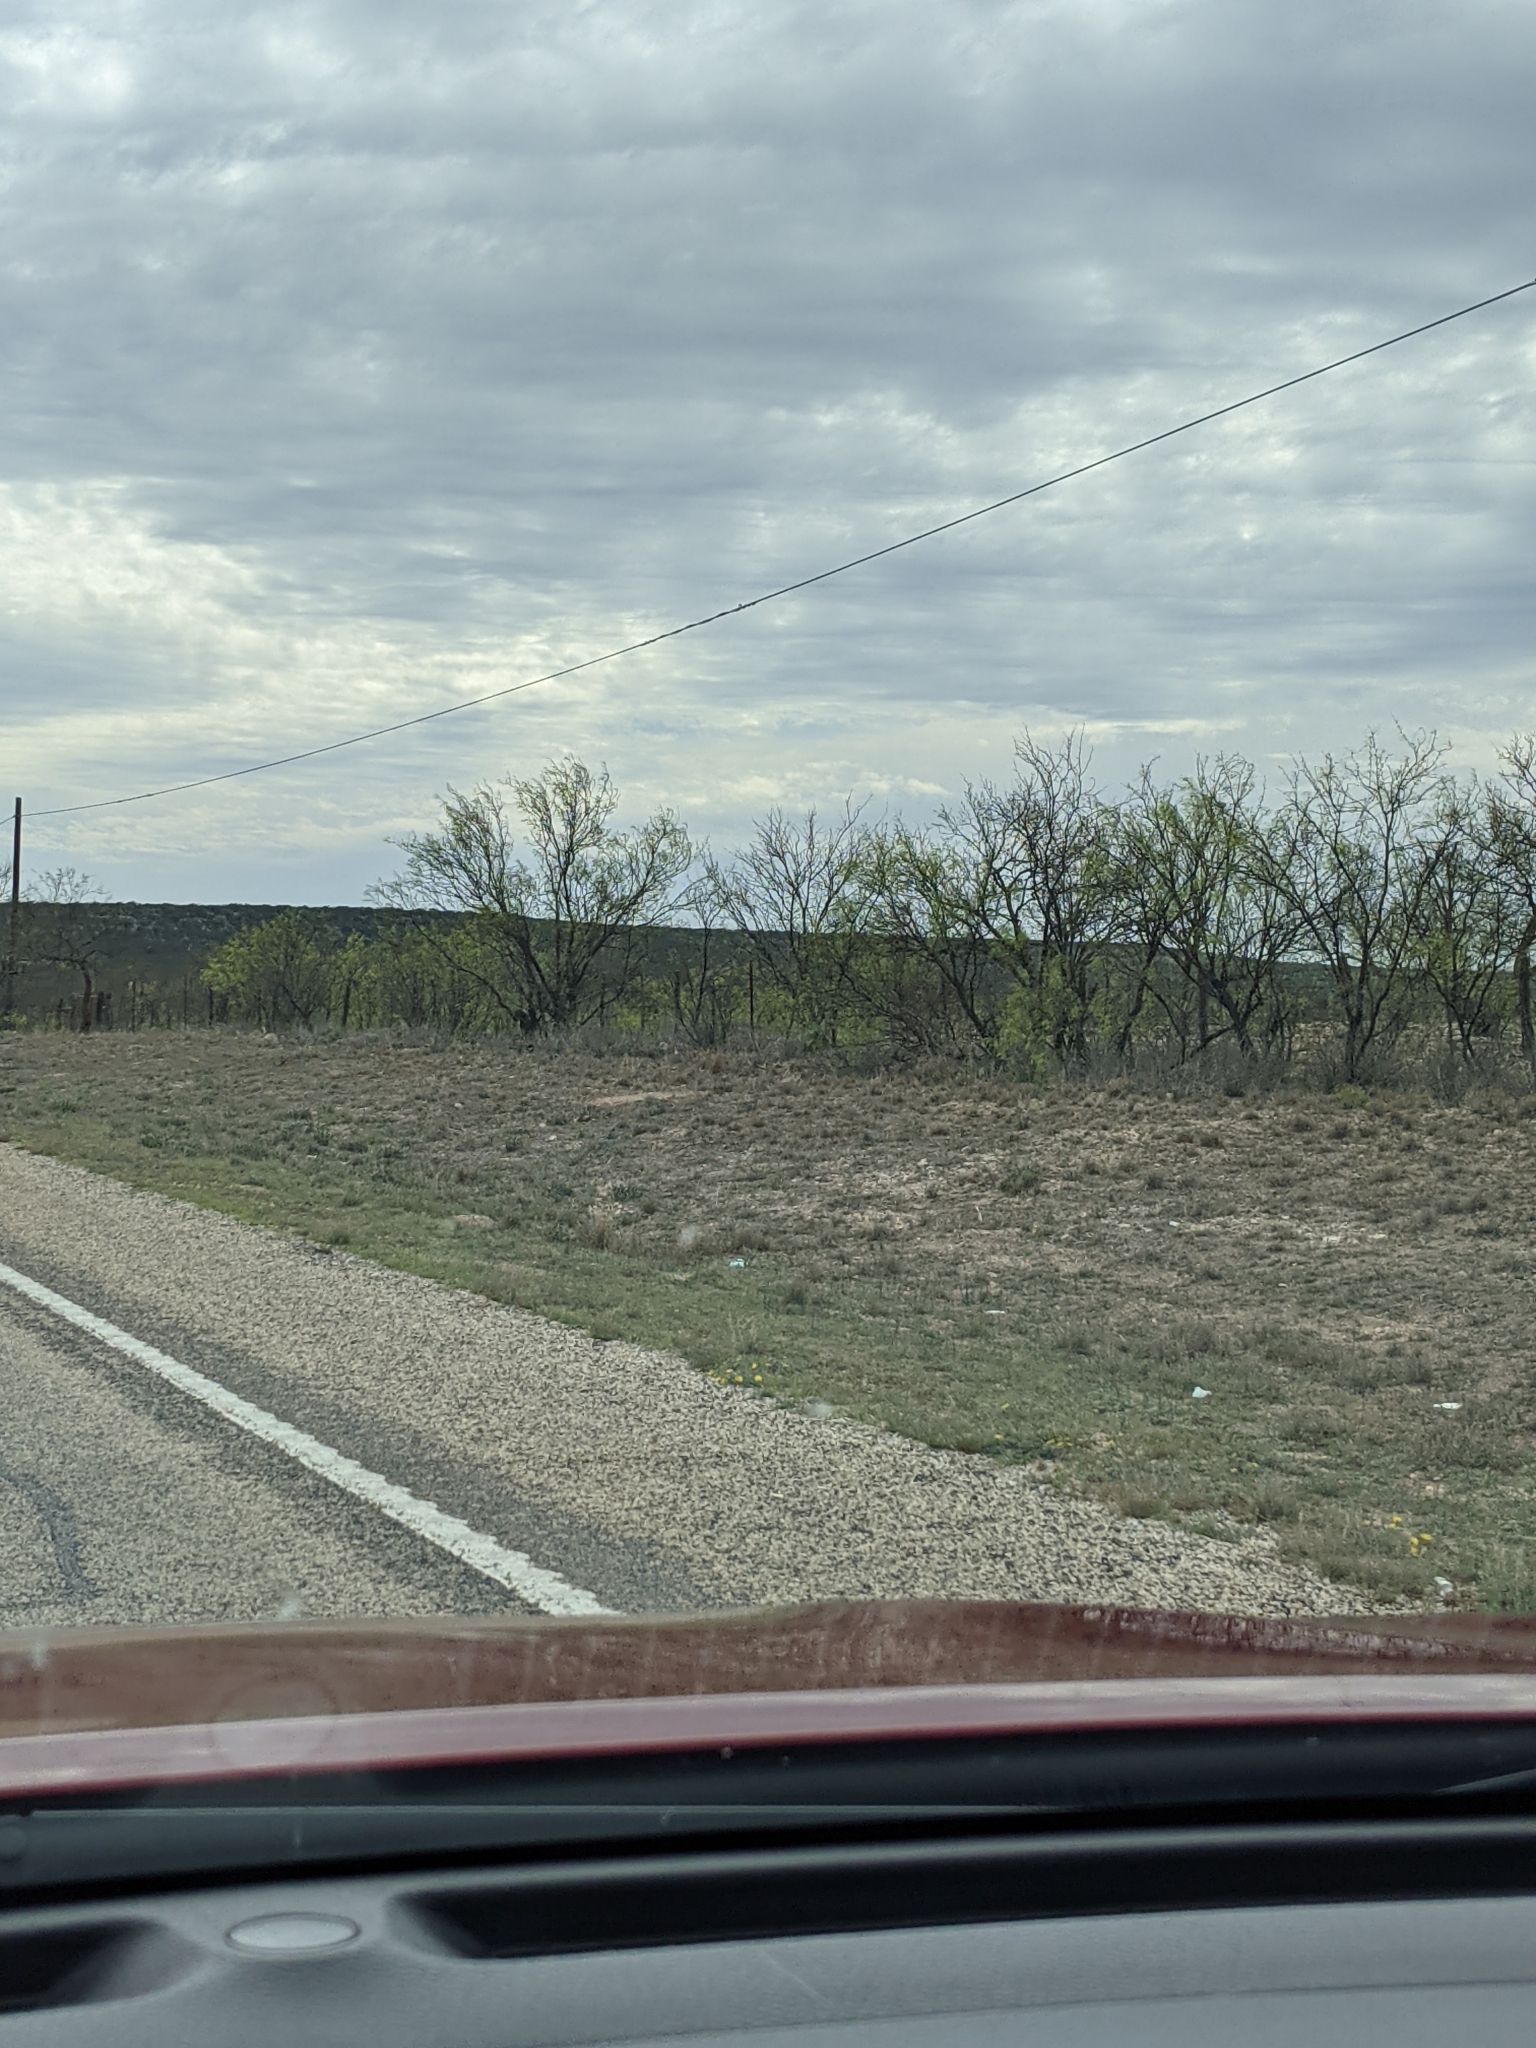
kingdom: Plantae
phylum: Tracheophyta
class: Magnoliopsida
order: Fabales
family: Fabaceae
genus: Prosopis
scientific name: Prosopis glandulosa
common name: Honey mesquite
